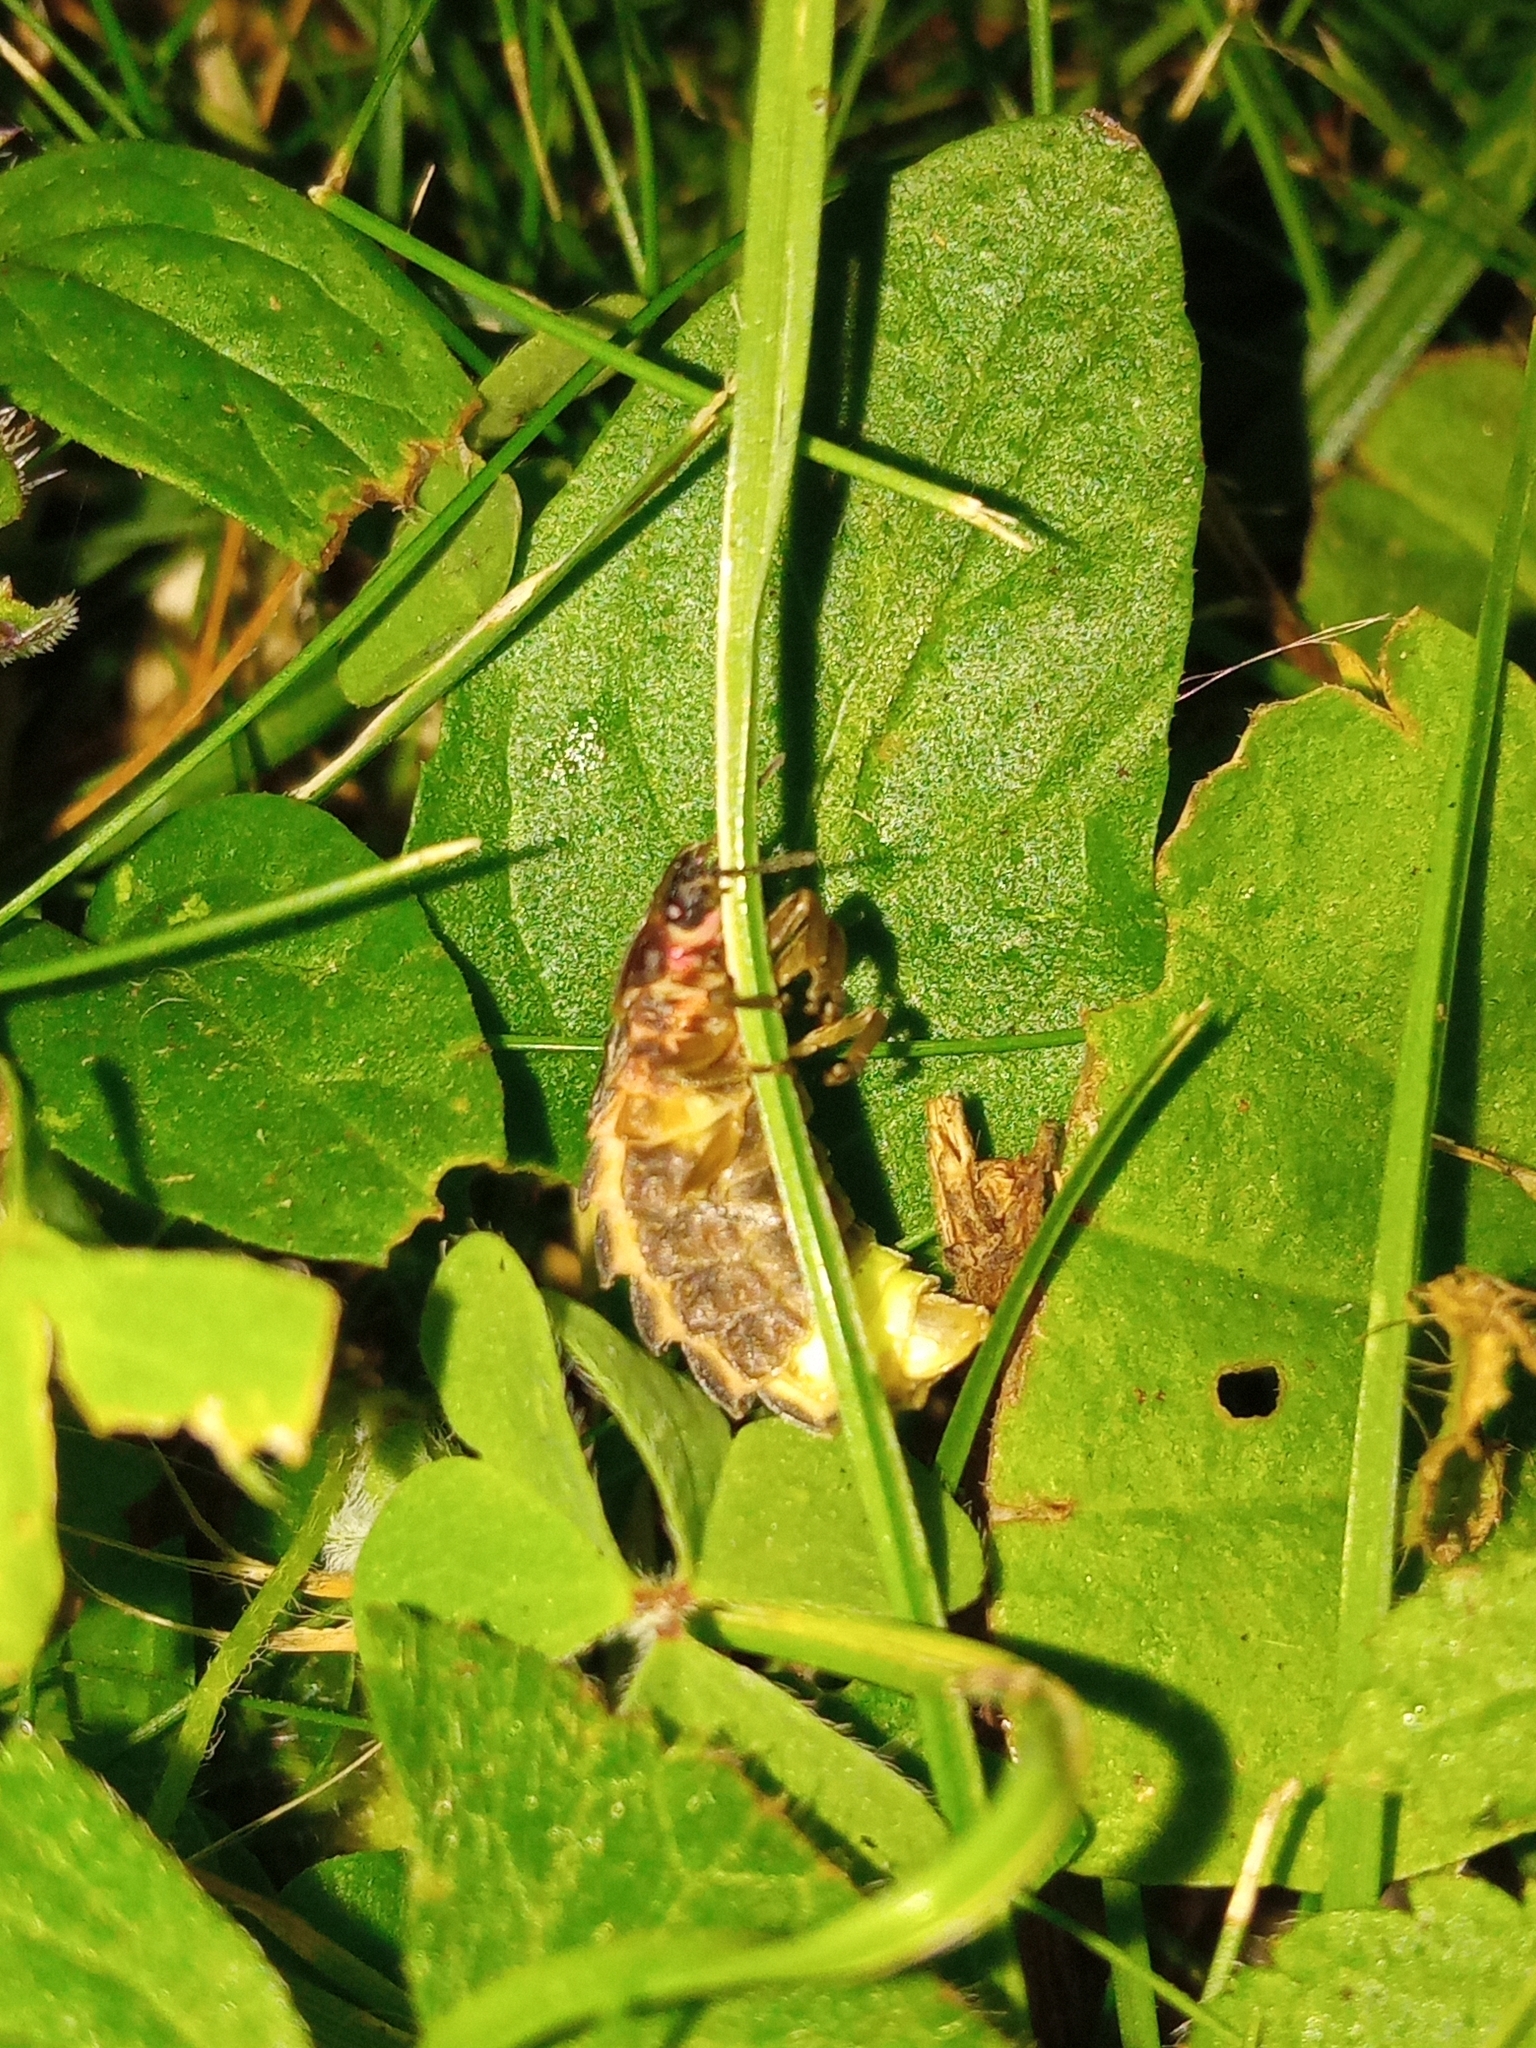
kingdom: Animalia
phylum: Arthropoda
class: Insecta
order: Coleoptera
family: Lampyridae
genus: Lampyris
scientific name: Lampyris noctiluca
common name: Glow-worm
